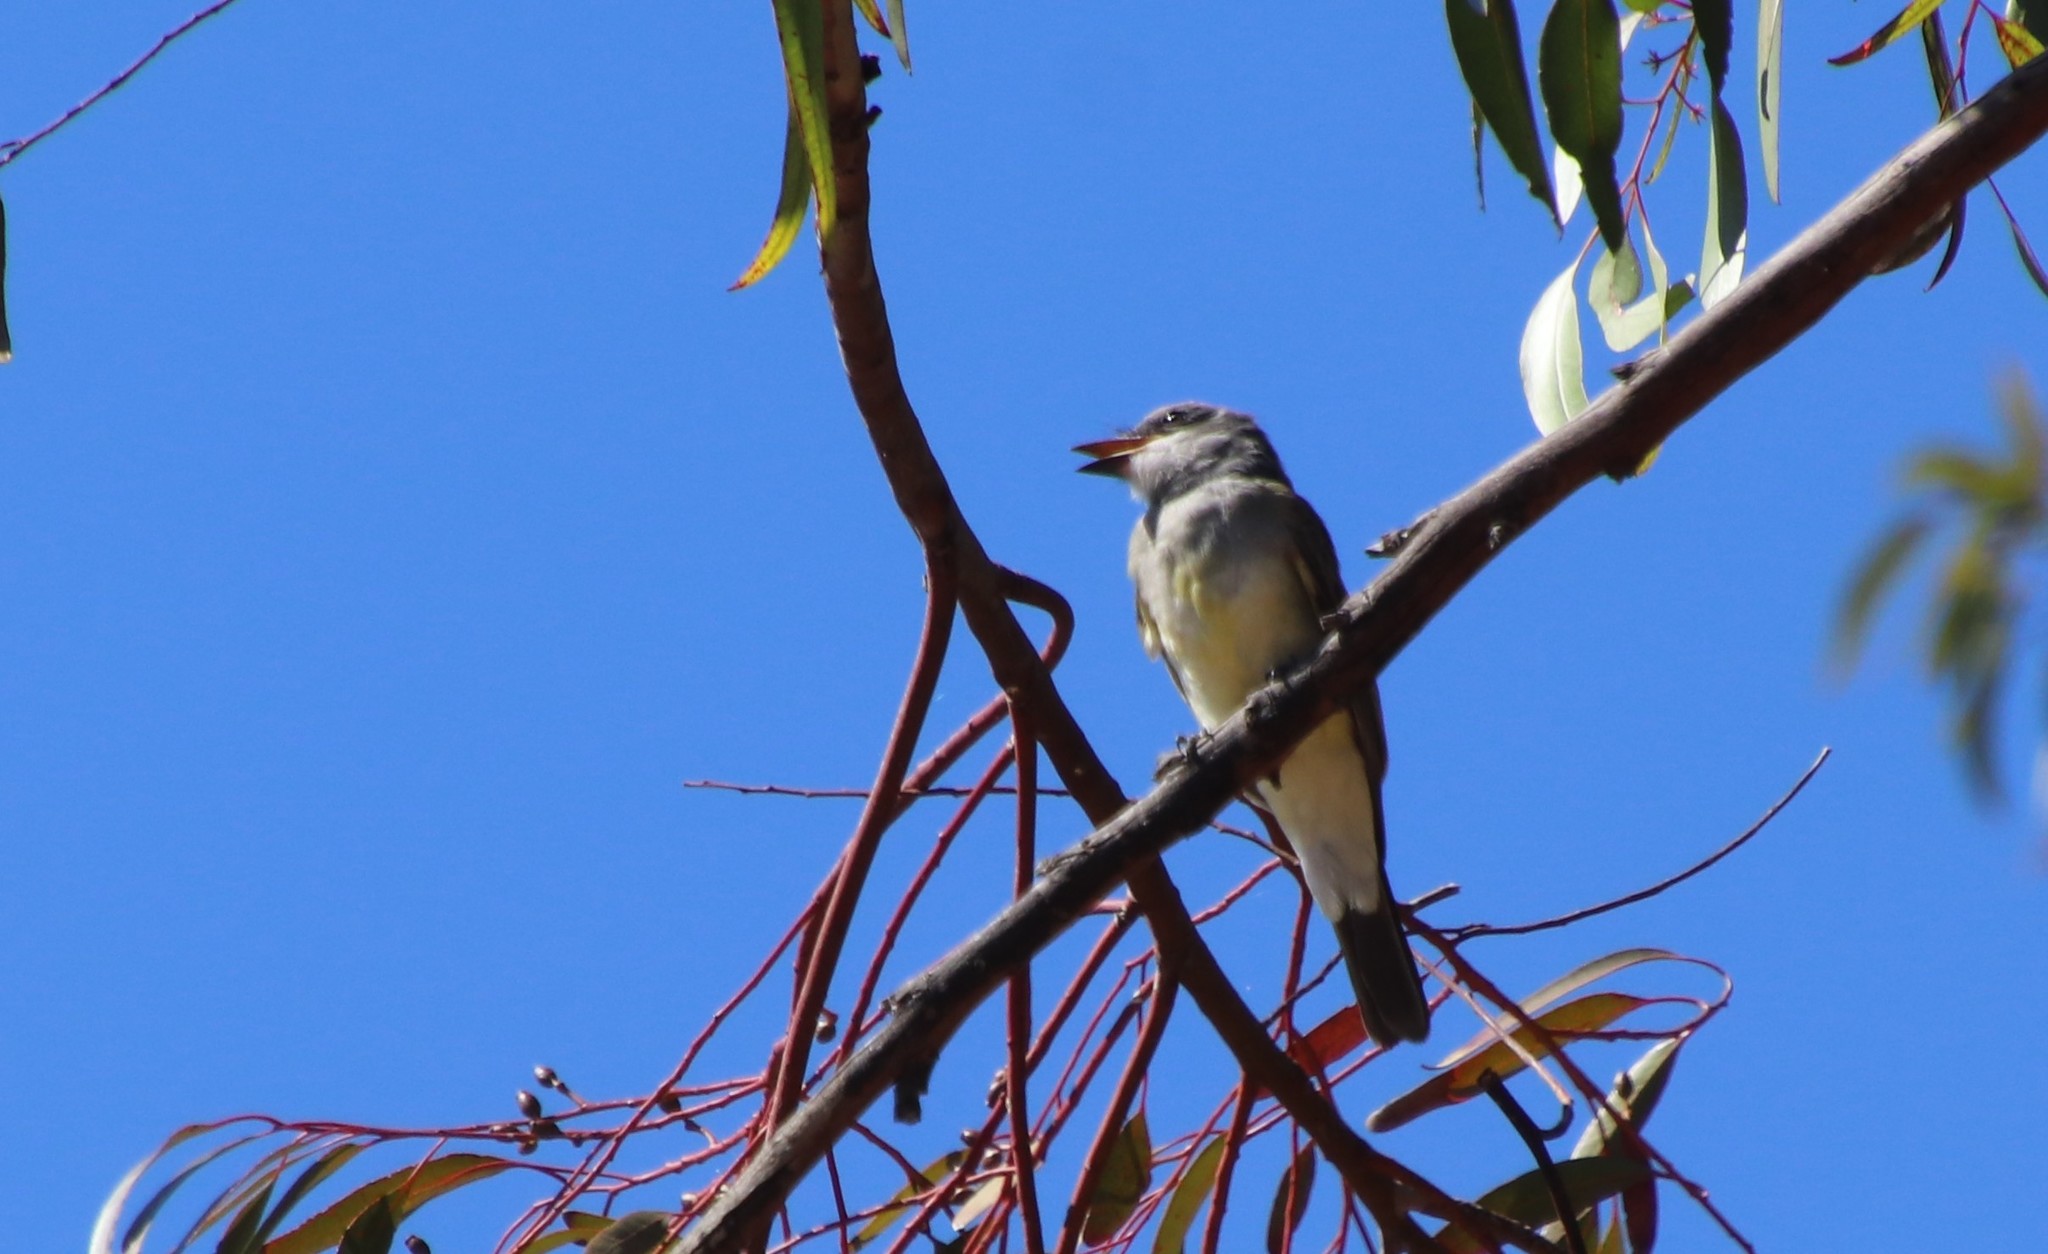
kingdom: Animalia
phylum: Chordata
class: Aves
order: Passeriformes
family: Tyrannidae
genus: Tyrannus
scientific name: Tyrannus vociferans
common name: Cassin's kingbird
